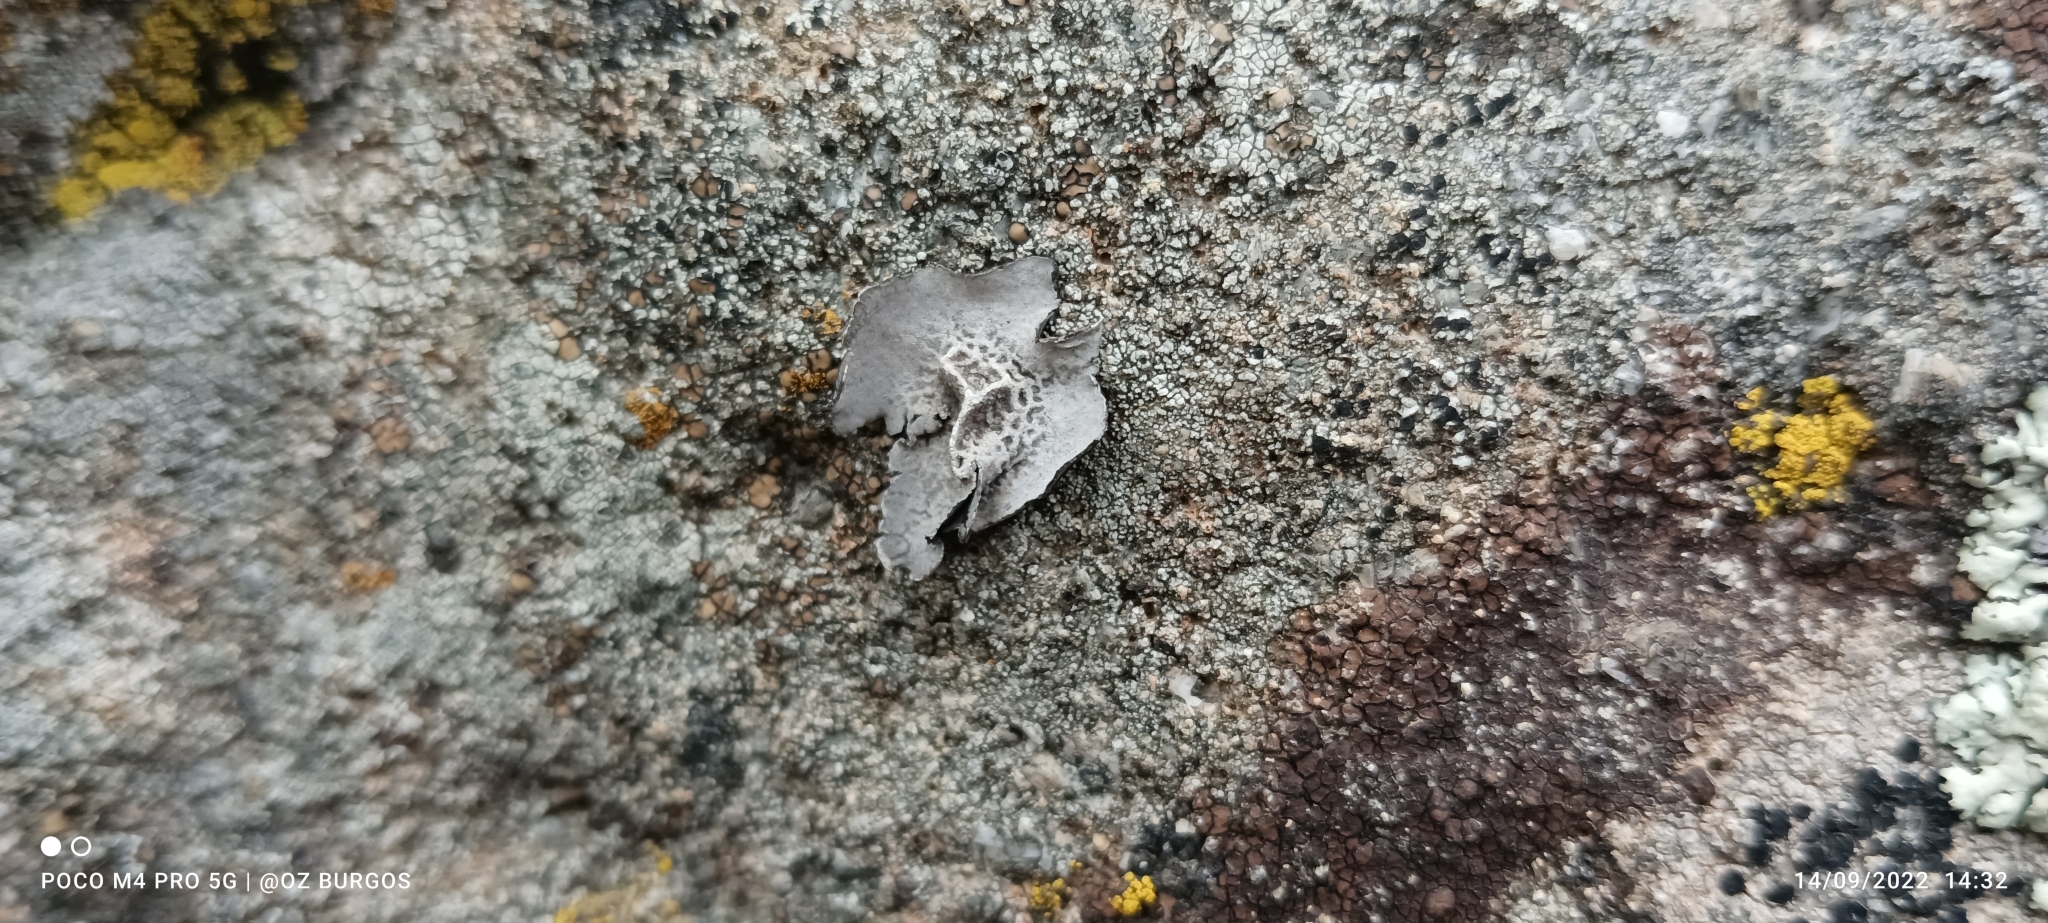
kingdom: Fungi
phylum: Ascomycota
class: Lecanoromycetes
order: Umbilicariales
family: Umbilicariaceae
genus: Umbilicaria
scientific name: Umbilicaria americana
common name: Frosted rock tripe
